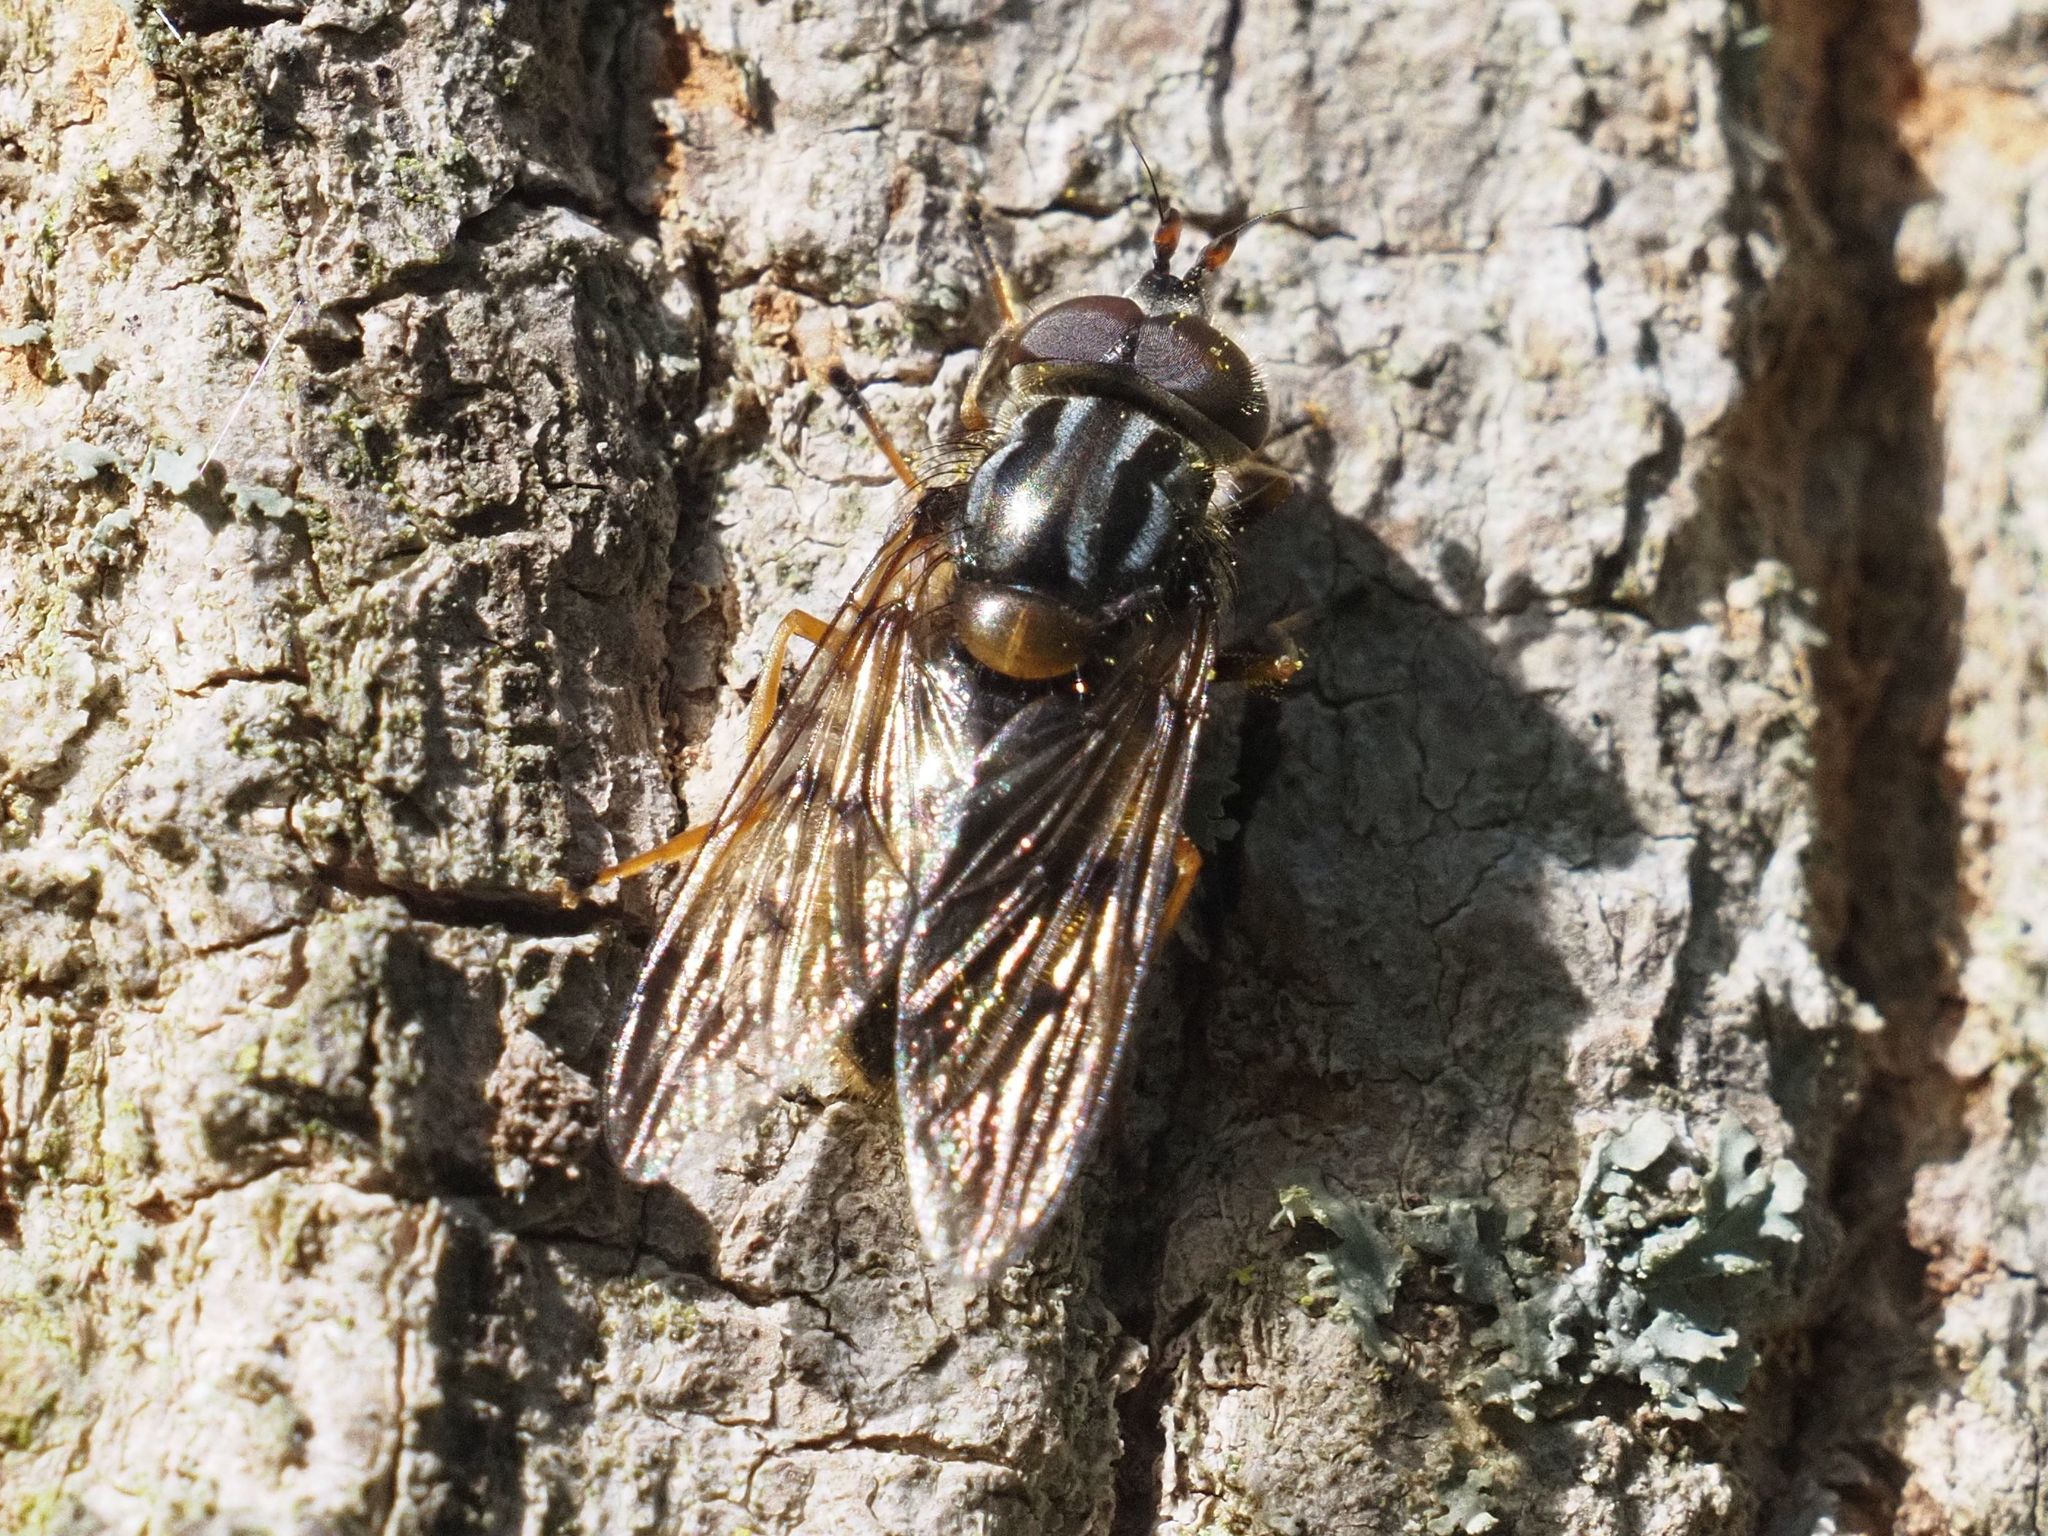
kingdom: Animalia
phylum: Arthropoda
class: Insecta
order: Diptera
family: Syrphidae
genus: Ferdinandea
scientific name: Ferdinandea cuprea
